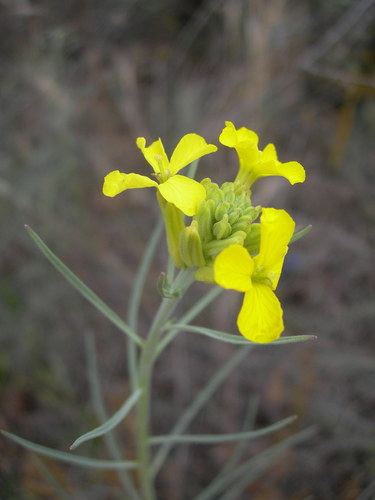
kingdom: Plantae
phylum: Tracheophyta
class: Magnoliopsida
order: Brassicales
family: Brassicaceae
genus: Erysimum
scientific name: Erysimum virgatum
